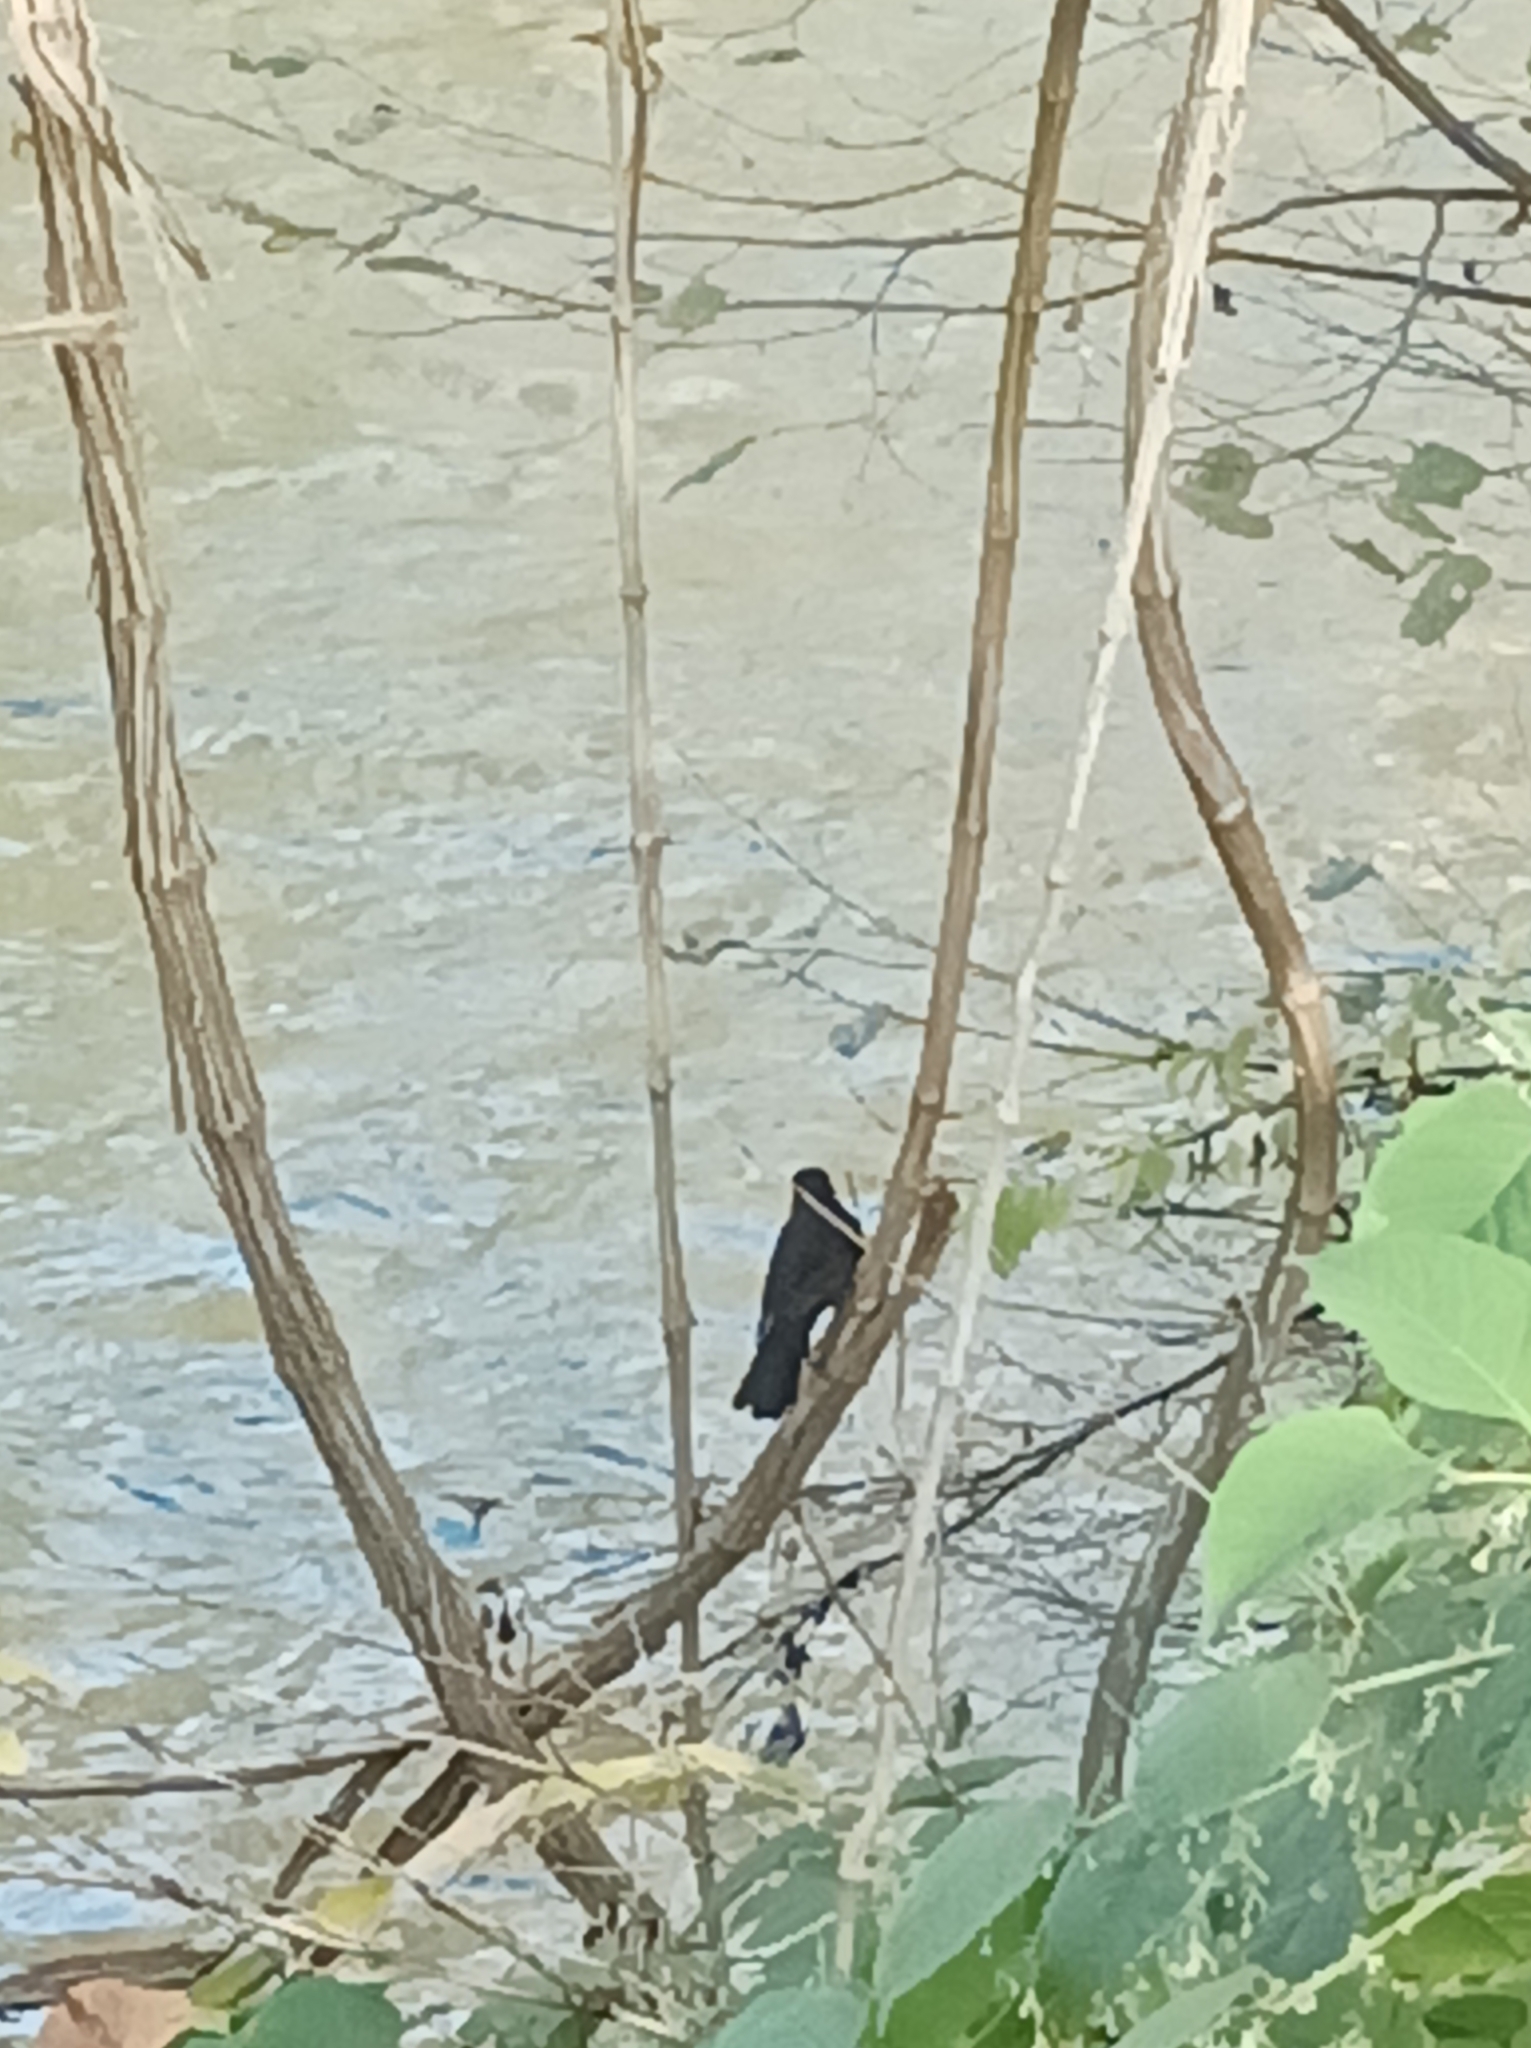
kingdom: Animalia
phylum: Chordata
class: Aves
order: Passeriformes
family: Turdidae
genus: Turdus
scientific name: Turdus merula
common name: Common blackbird
